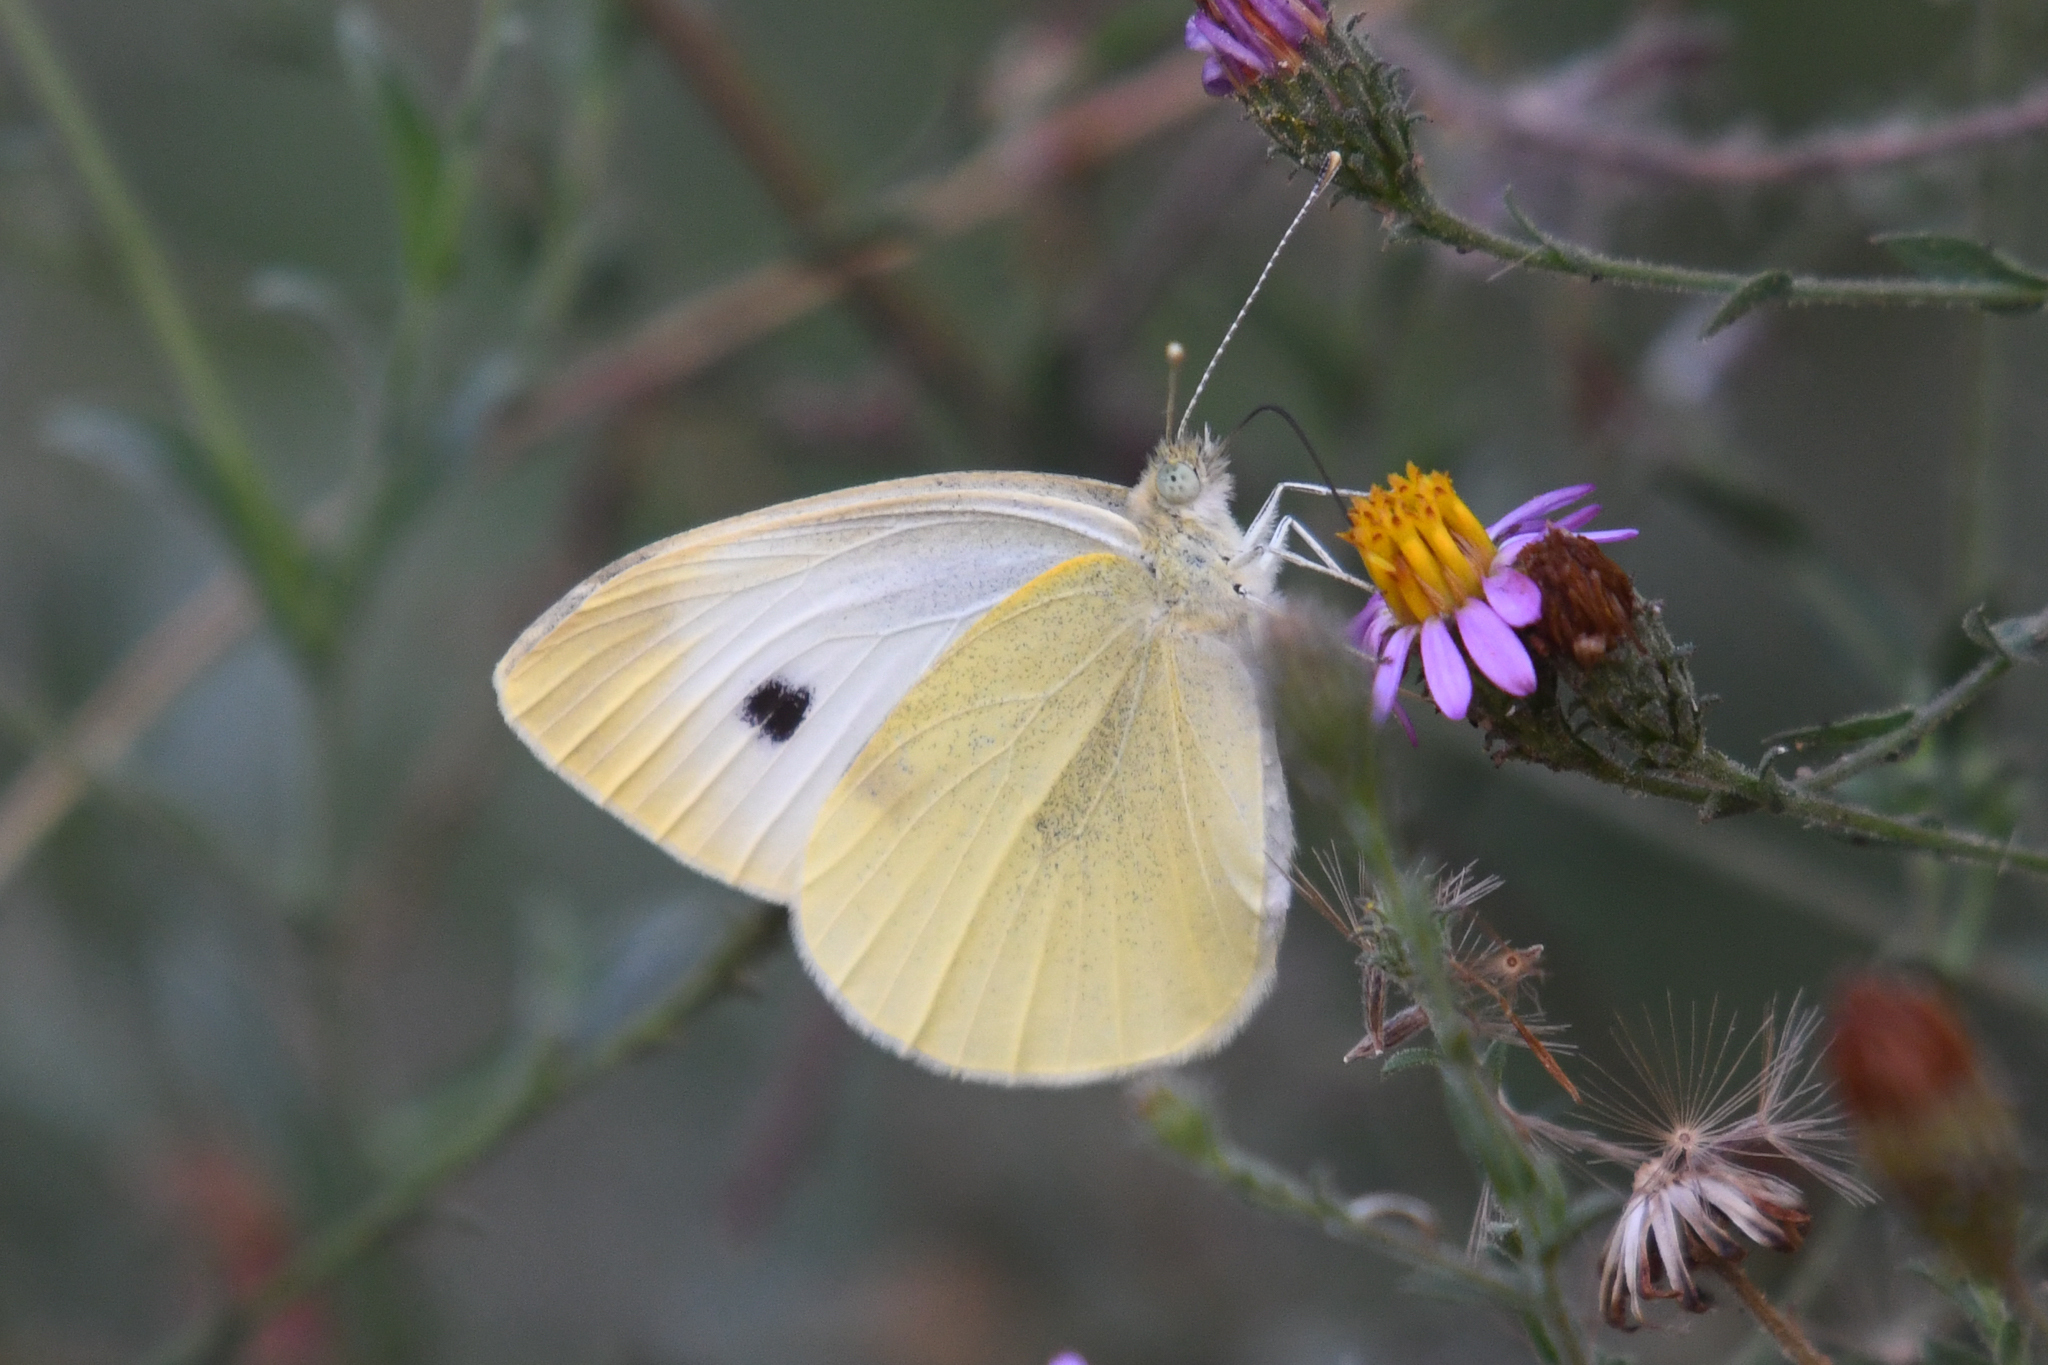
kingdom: Animalia
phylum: Arthropoda
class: Insecta
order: Lepidoptera
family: Pieridae
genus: Pieris
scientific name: Pieris rapae
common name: Small white
